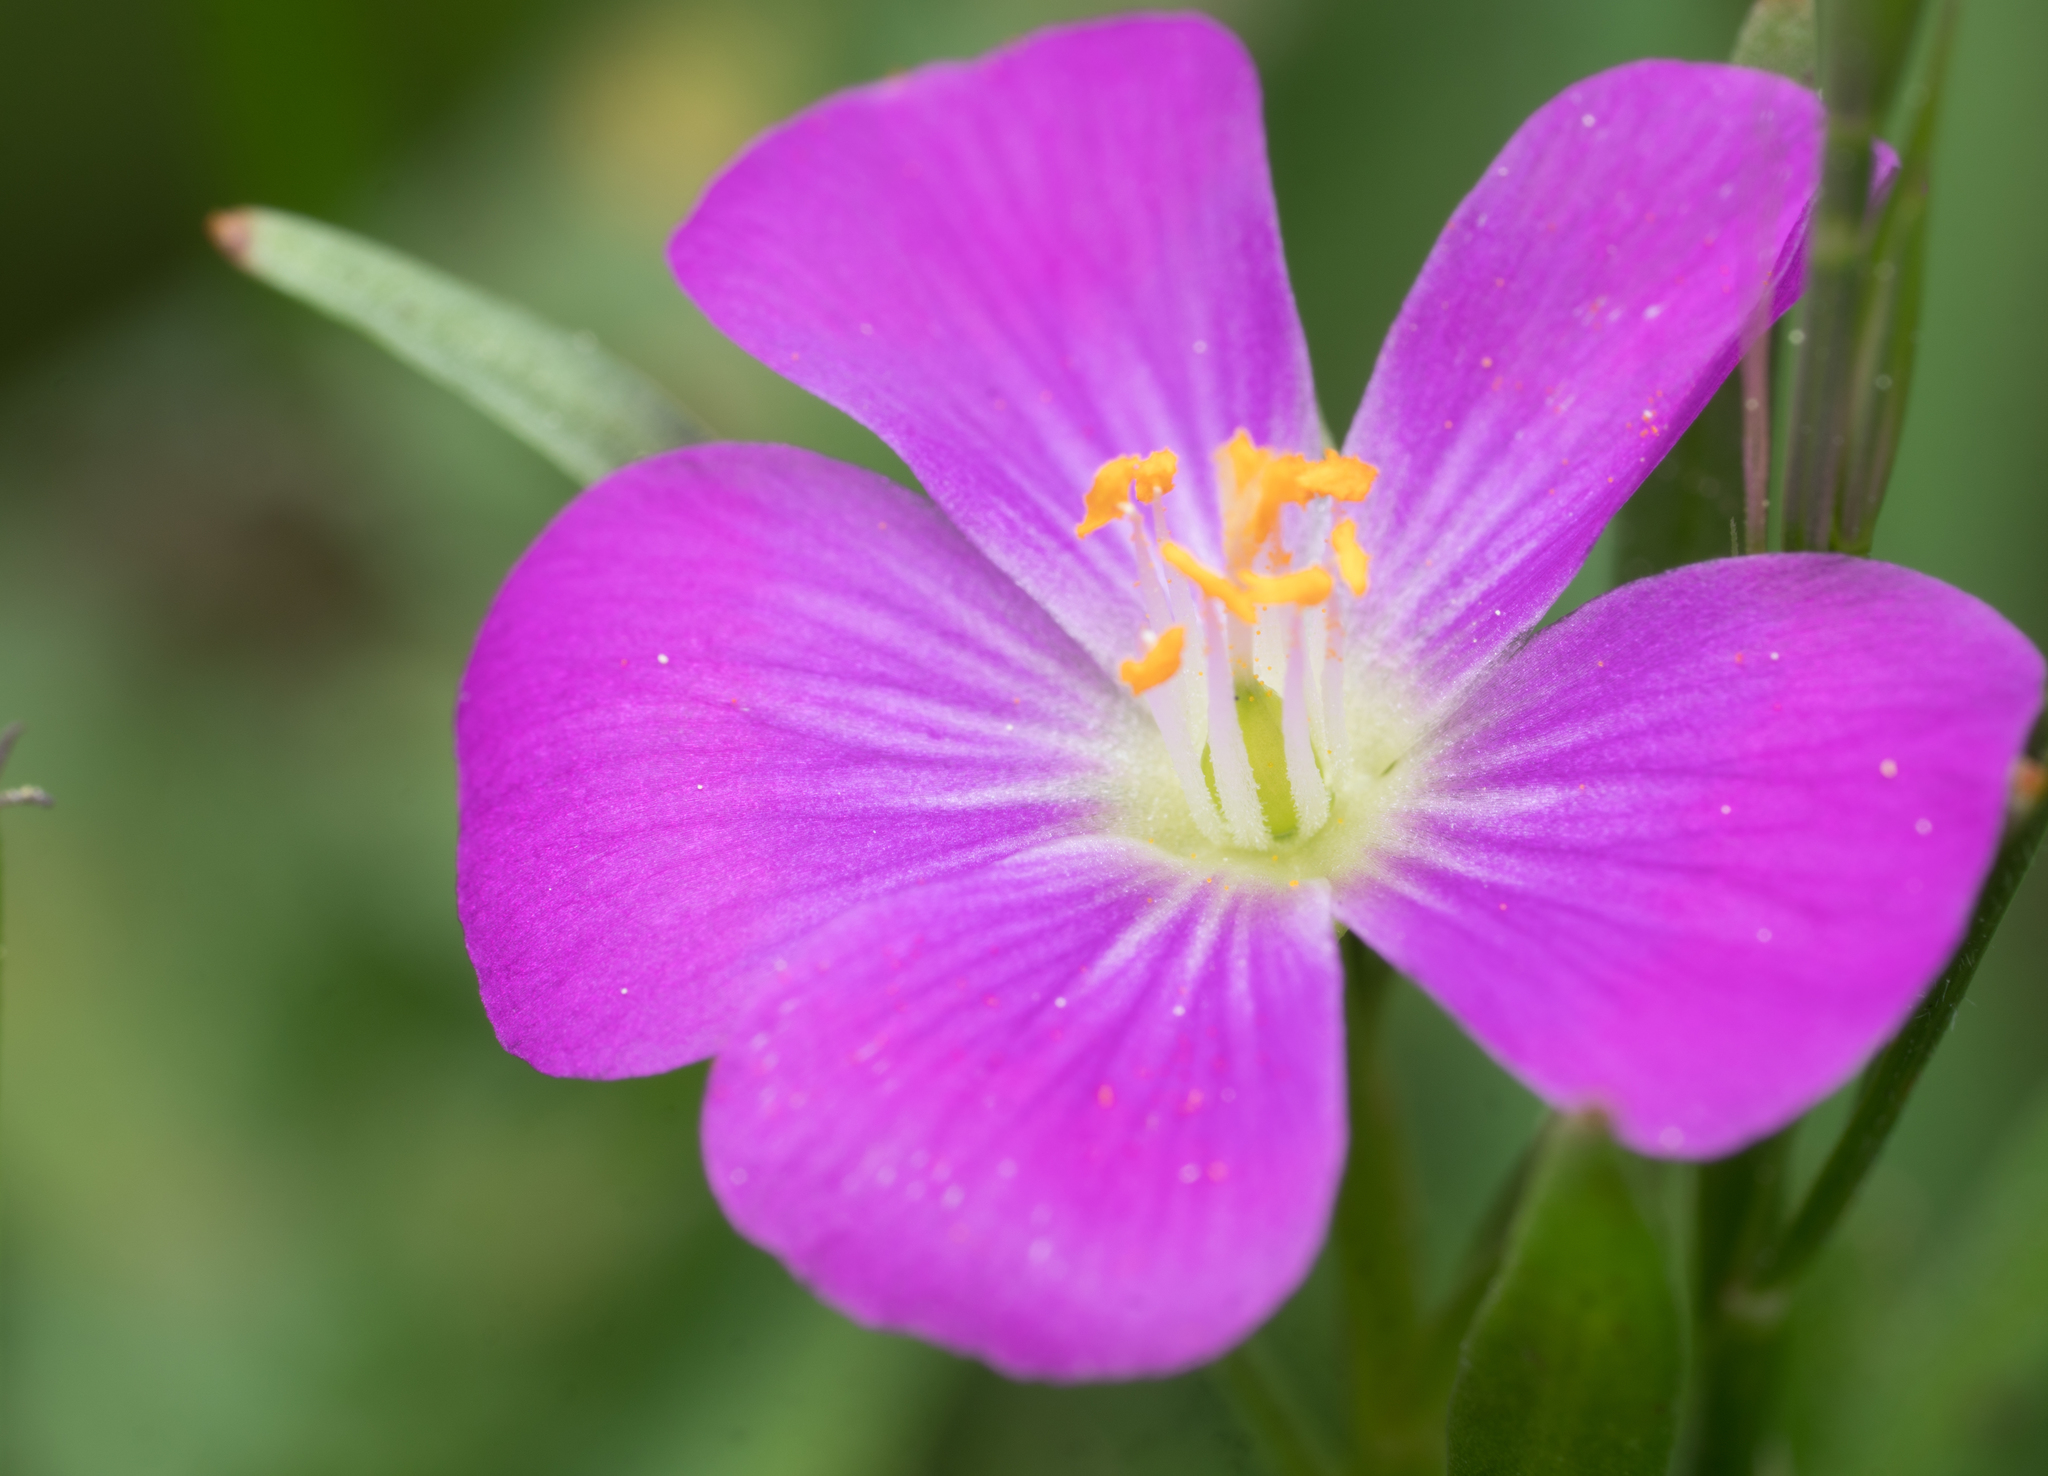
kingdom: Plantae
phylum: Tracheophyta
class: Magnoliopsida
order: Caryophyllales
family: Montiaceae
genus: Calandrinia
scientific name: Calandrinia menziesii
